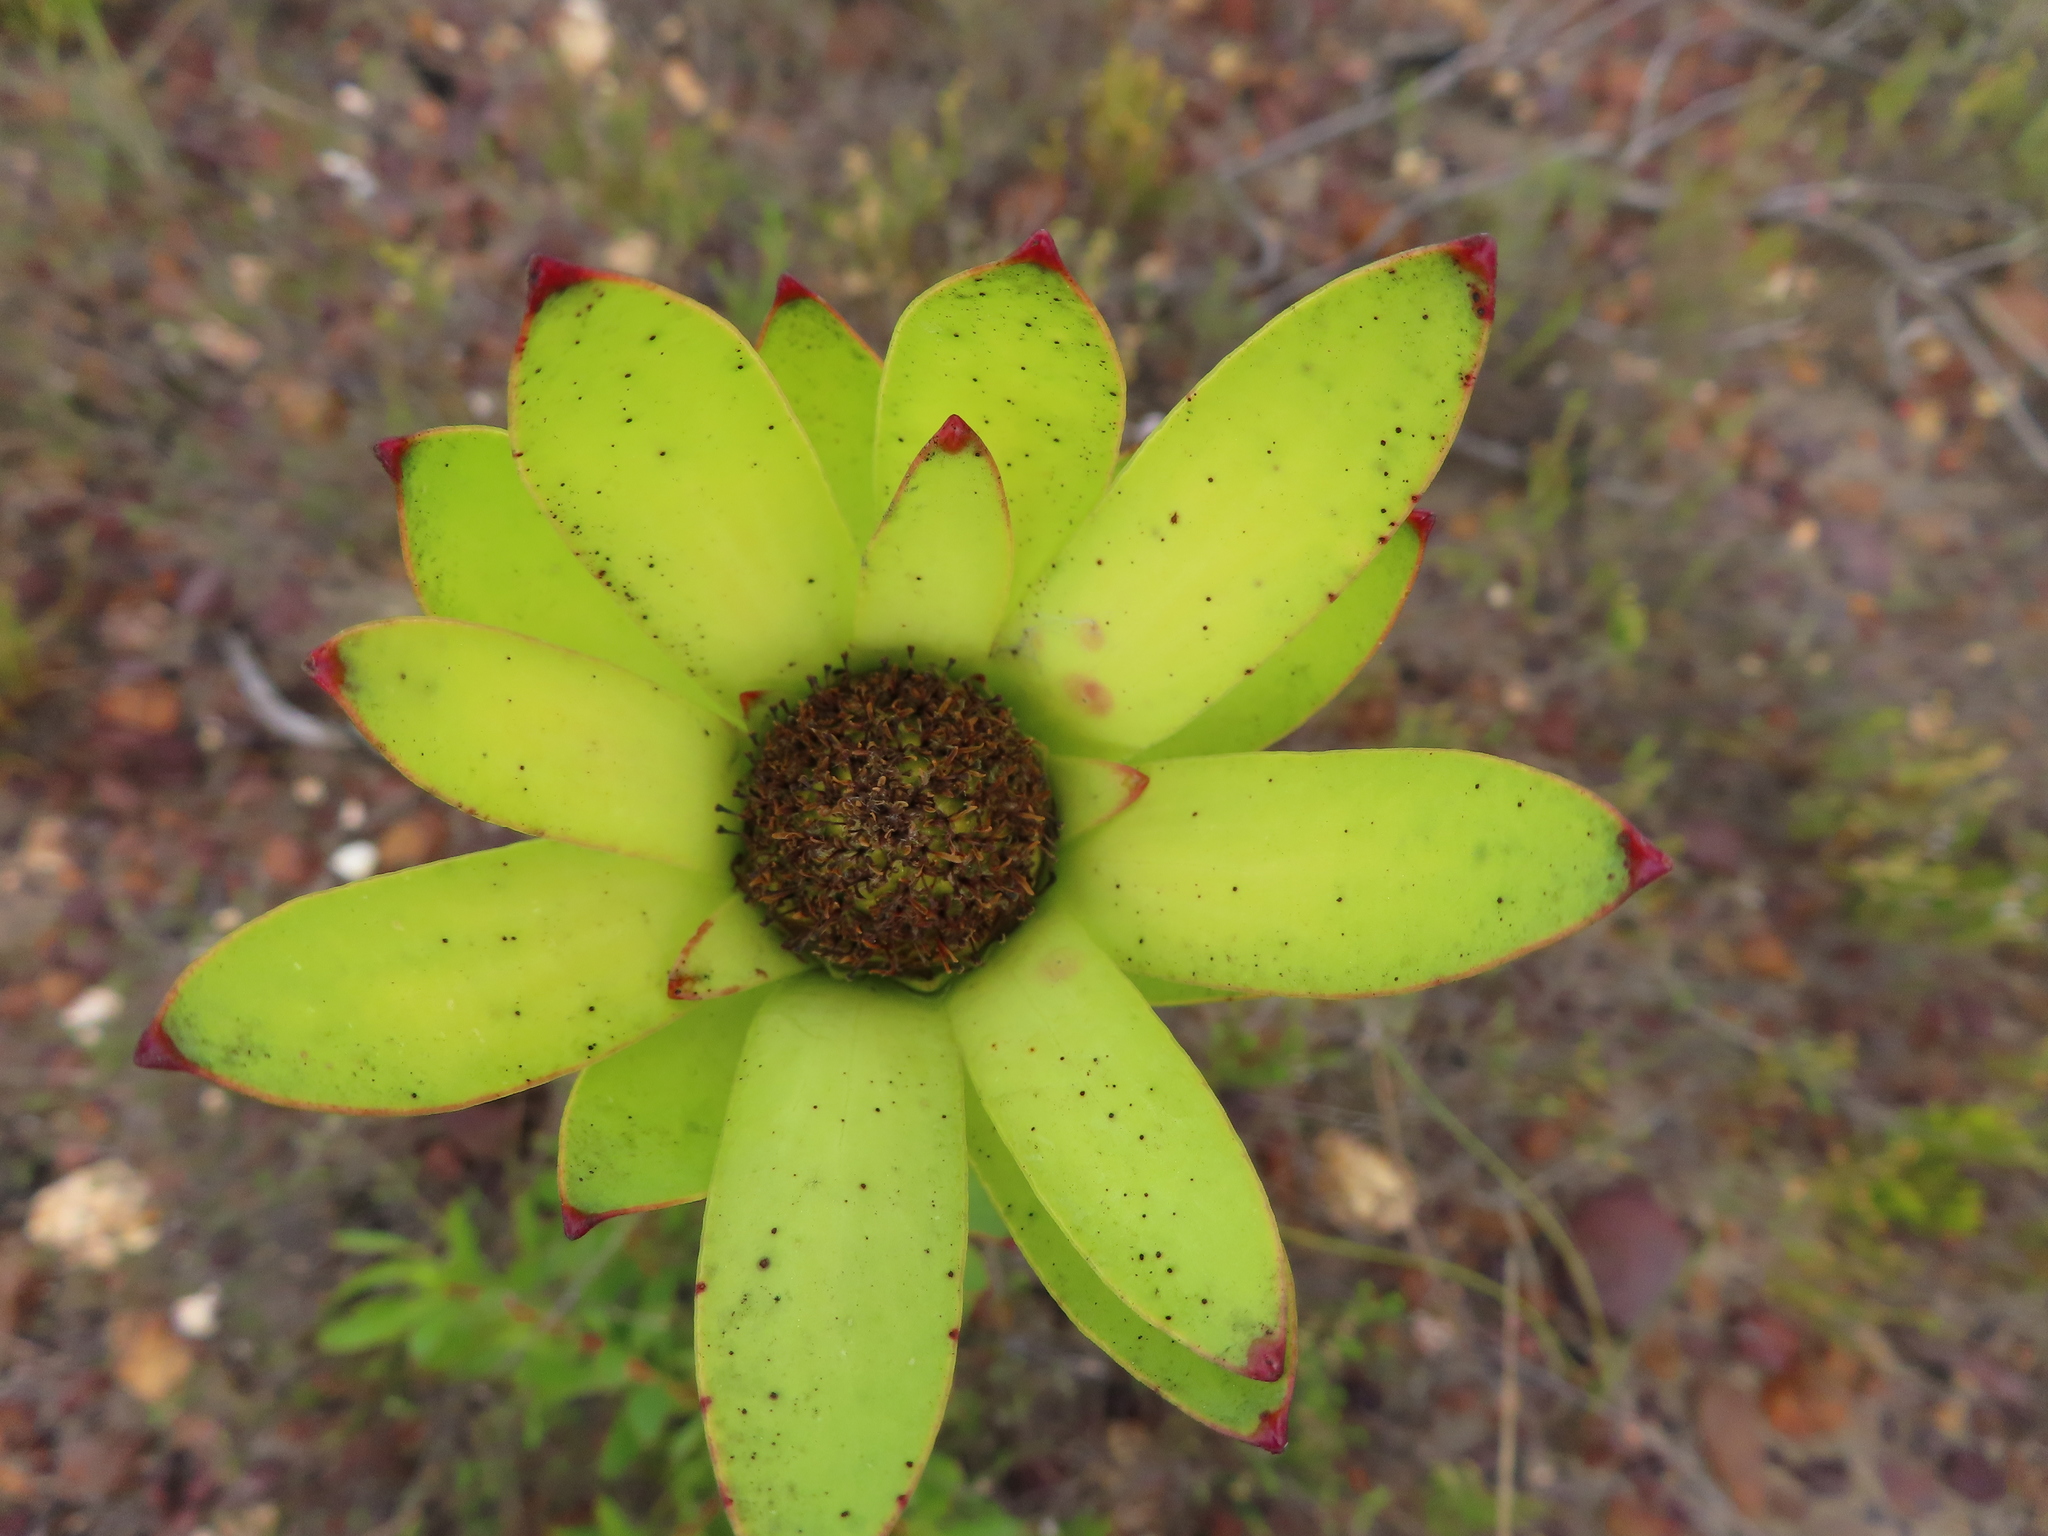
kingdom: Plantae
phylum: Tracheophyta
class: Magnoliopsida
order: Proteales
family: Proteaceae
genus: Leucadendron
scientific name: Leucadendron elimense
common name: Elim conebush
